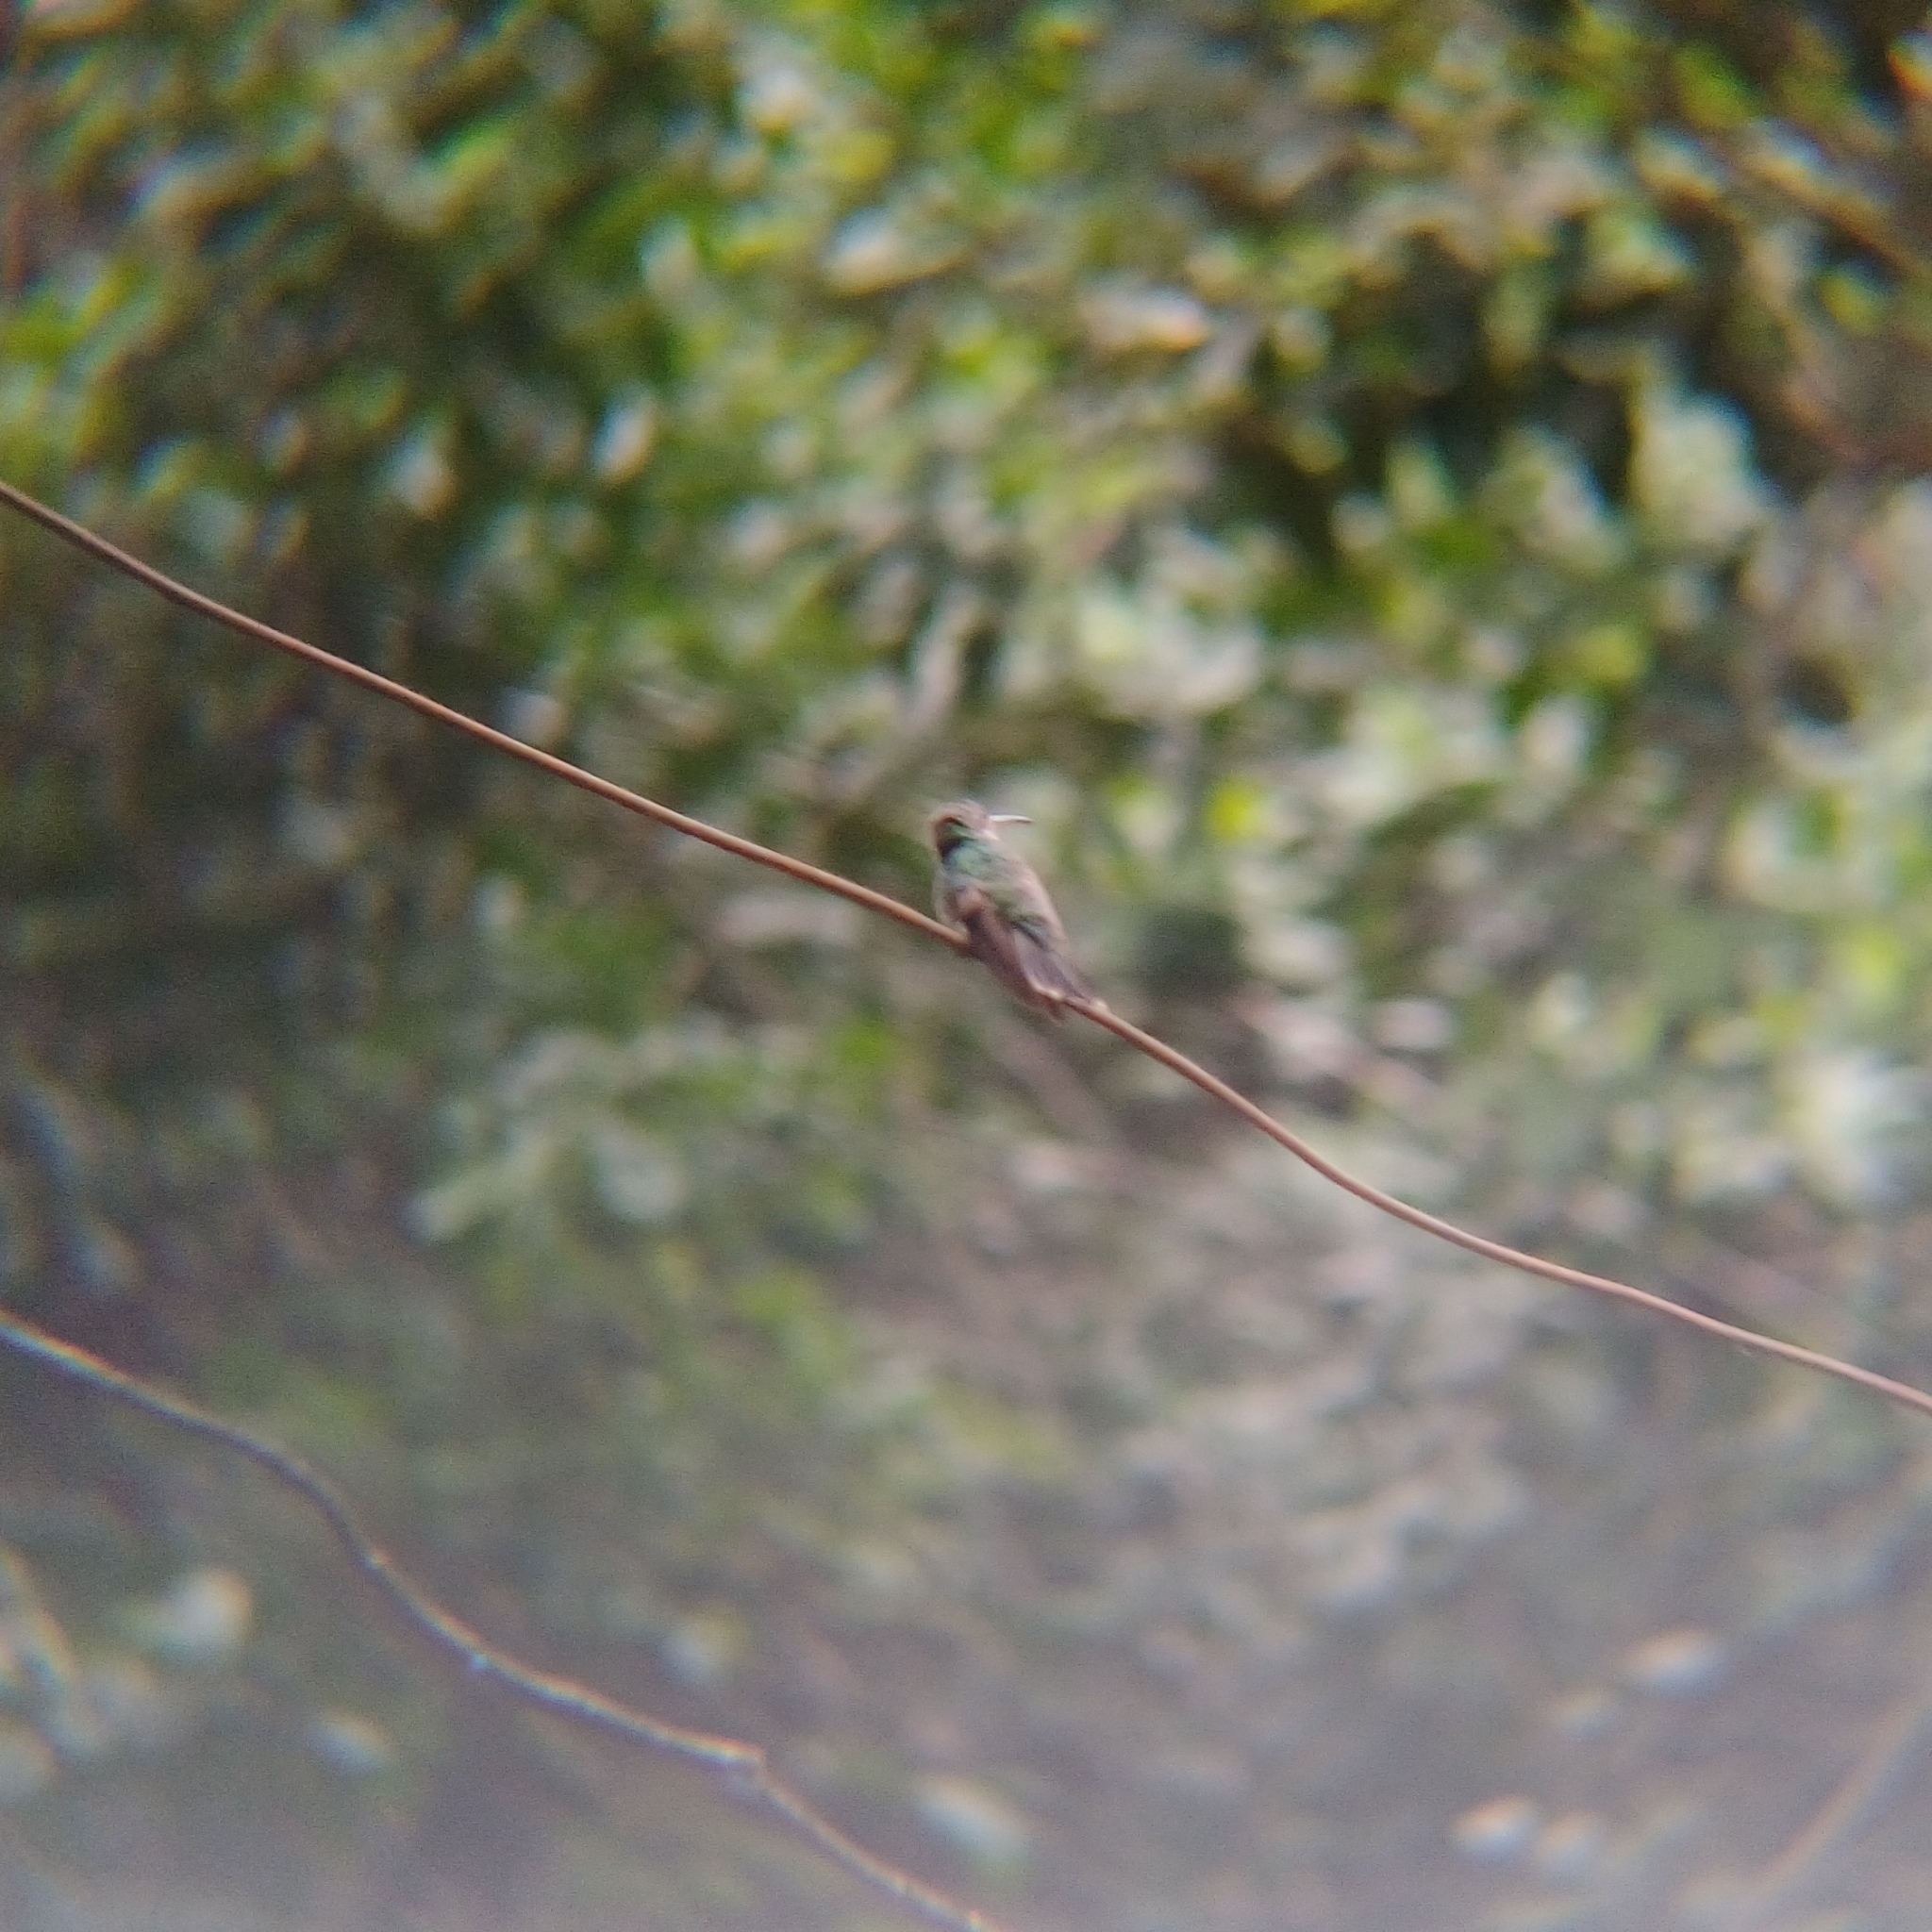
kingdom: Animalia
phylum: Chordata
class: Aves
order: Apodiformes
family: Trochilidae
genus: Chionomesa
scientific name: Chionomesa fimbriata
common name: Glittering-throated emerald
